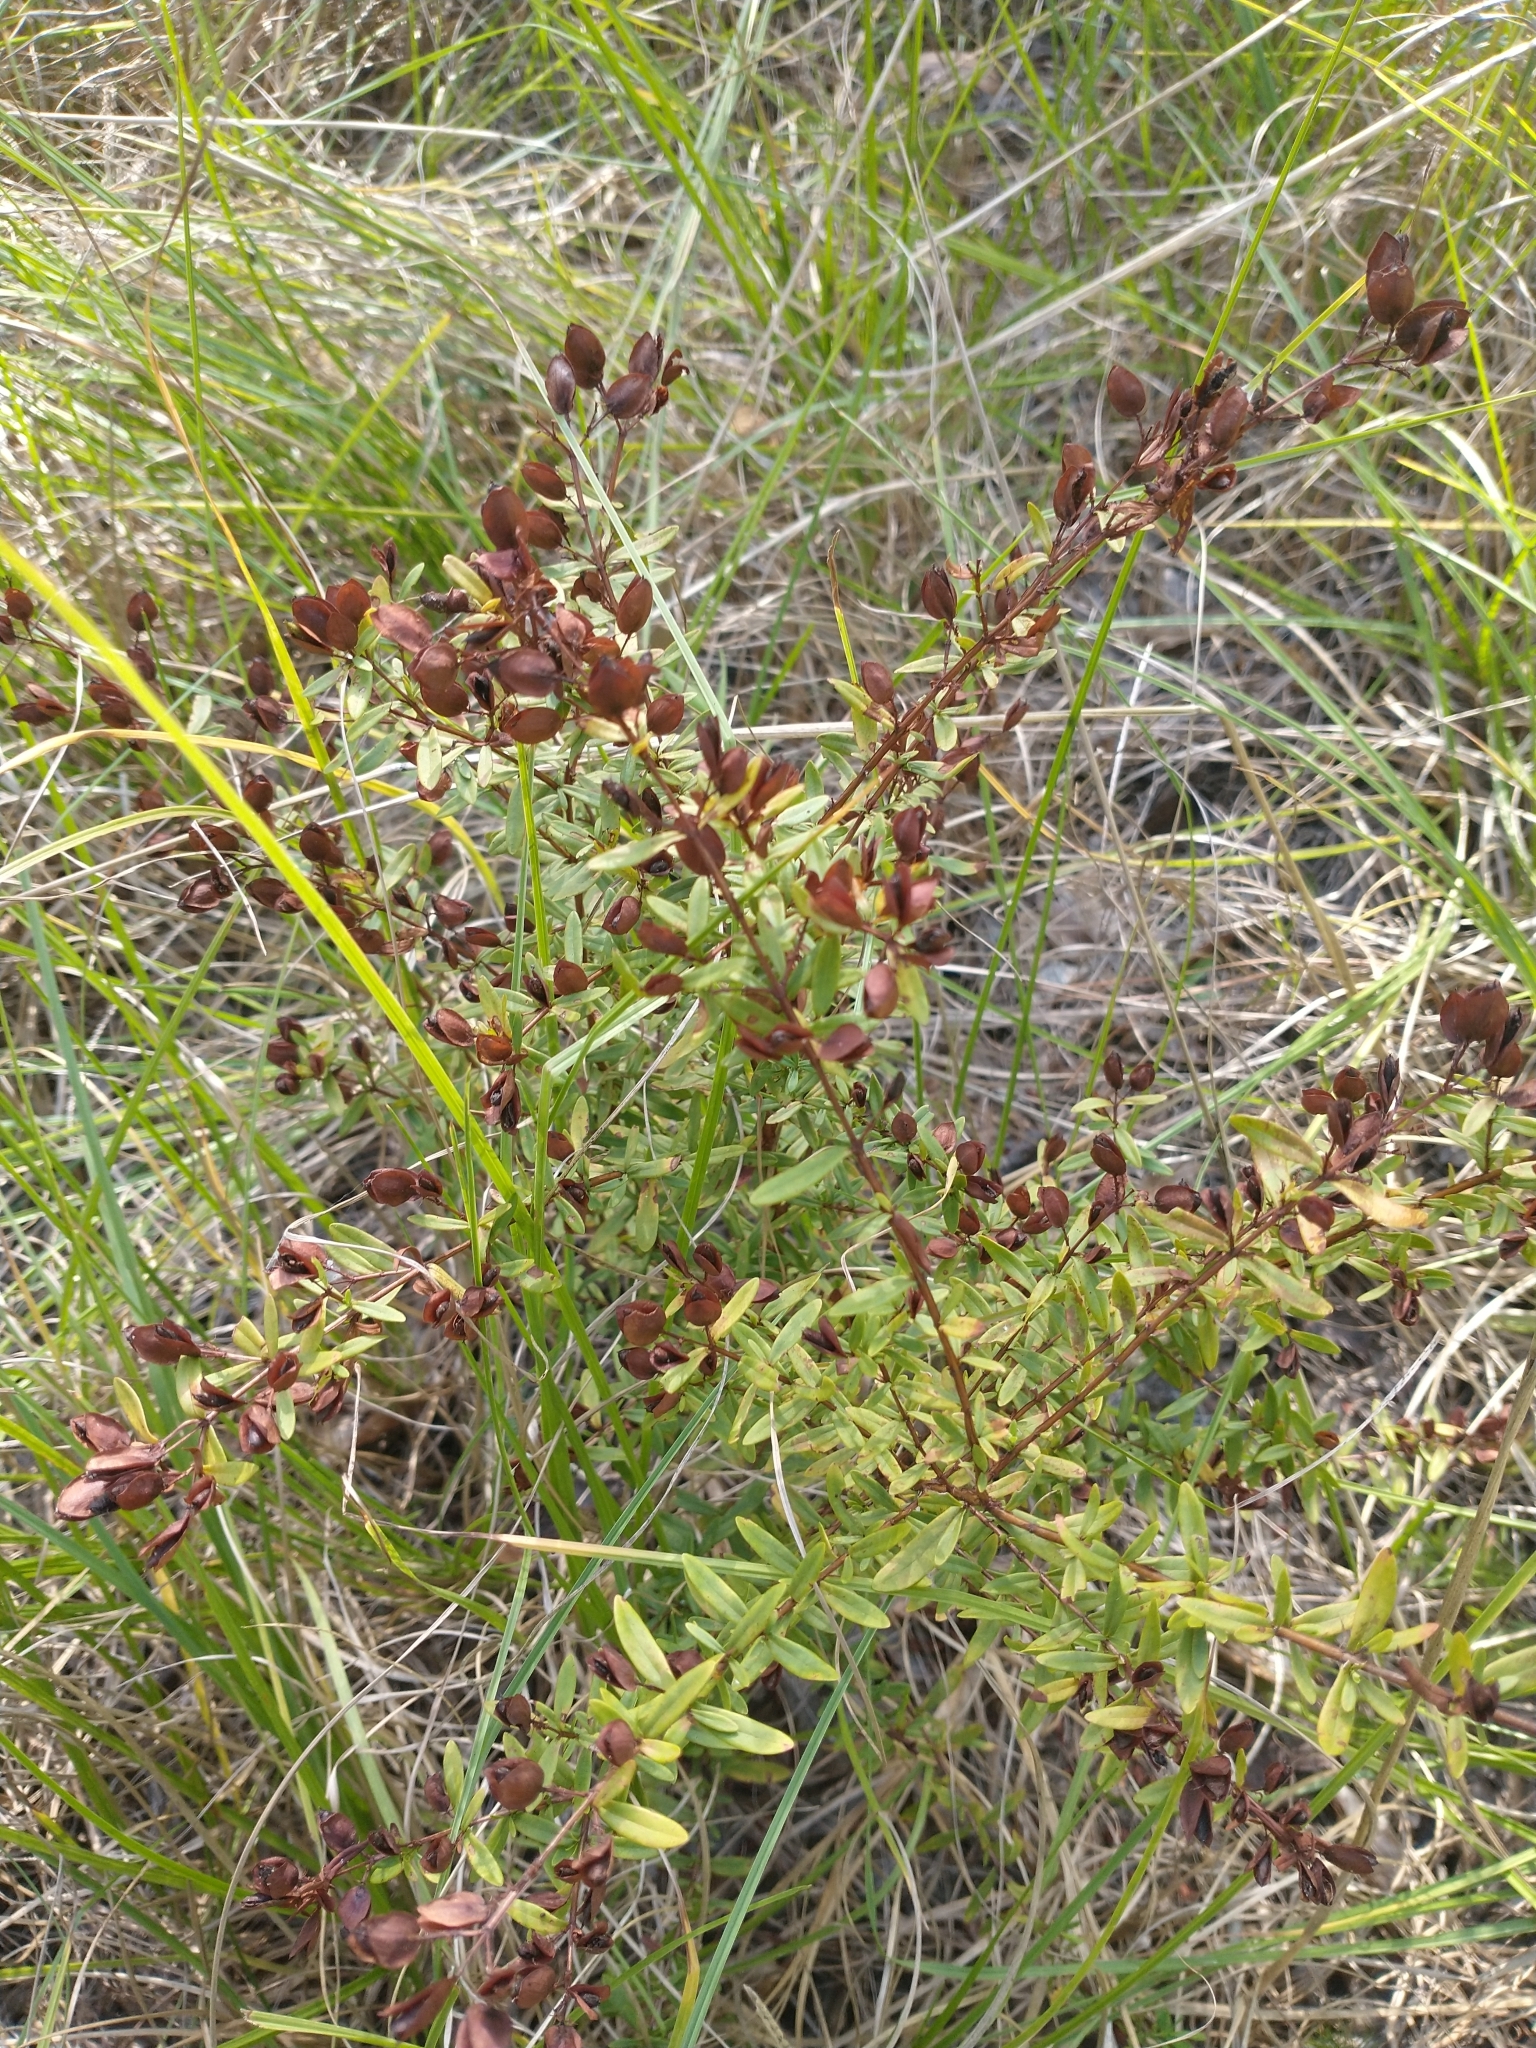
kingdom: Plantae
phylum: Tracheophyta
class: Magnoliopsida
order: Malpighiales
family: Hypericaceae
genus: Hypericum
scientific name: Hypericum hypericoides
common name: St. andrew's cross
